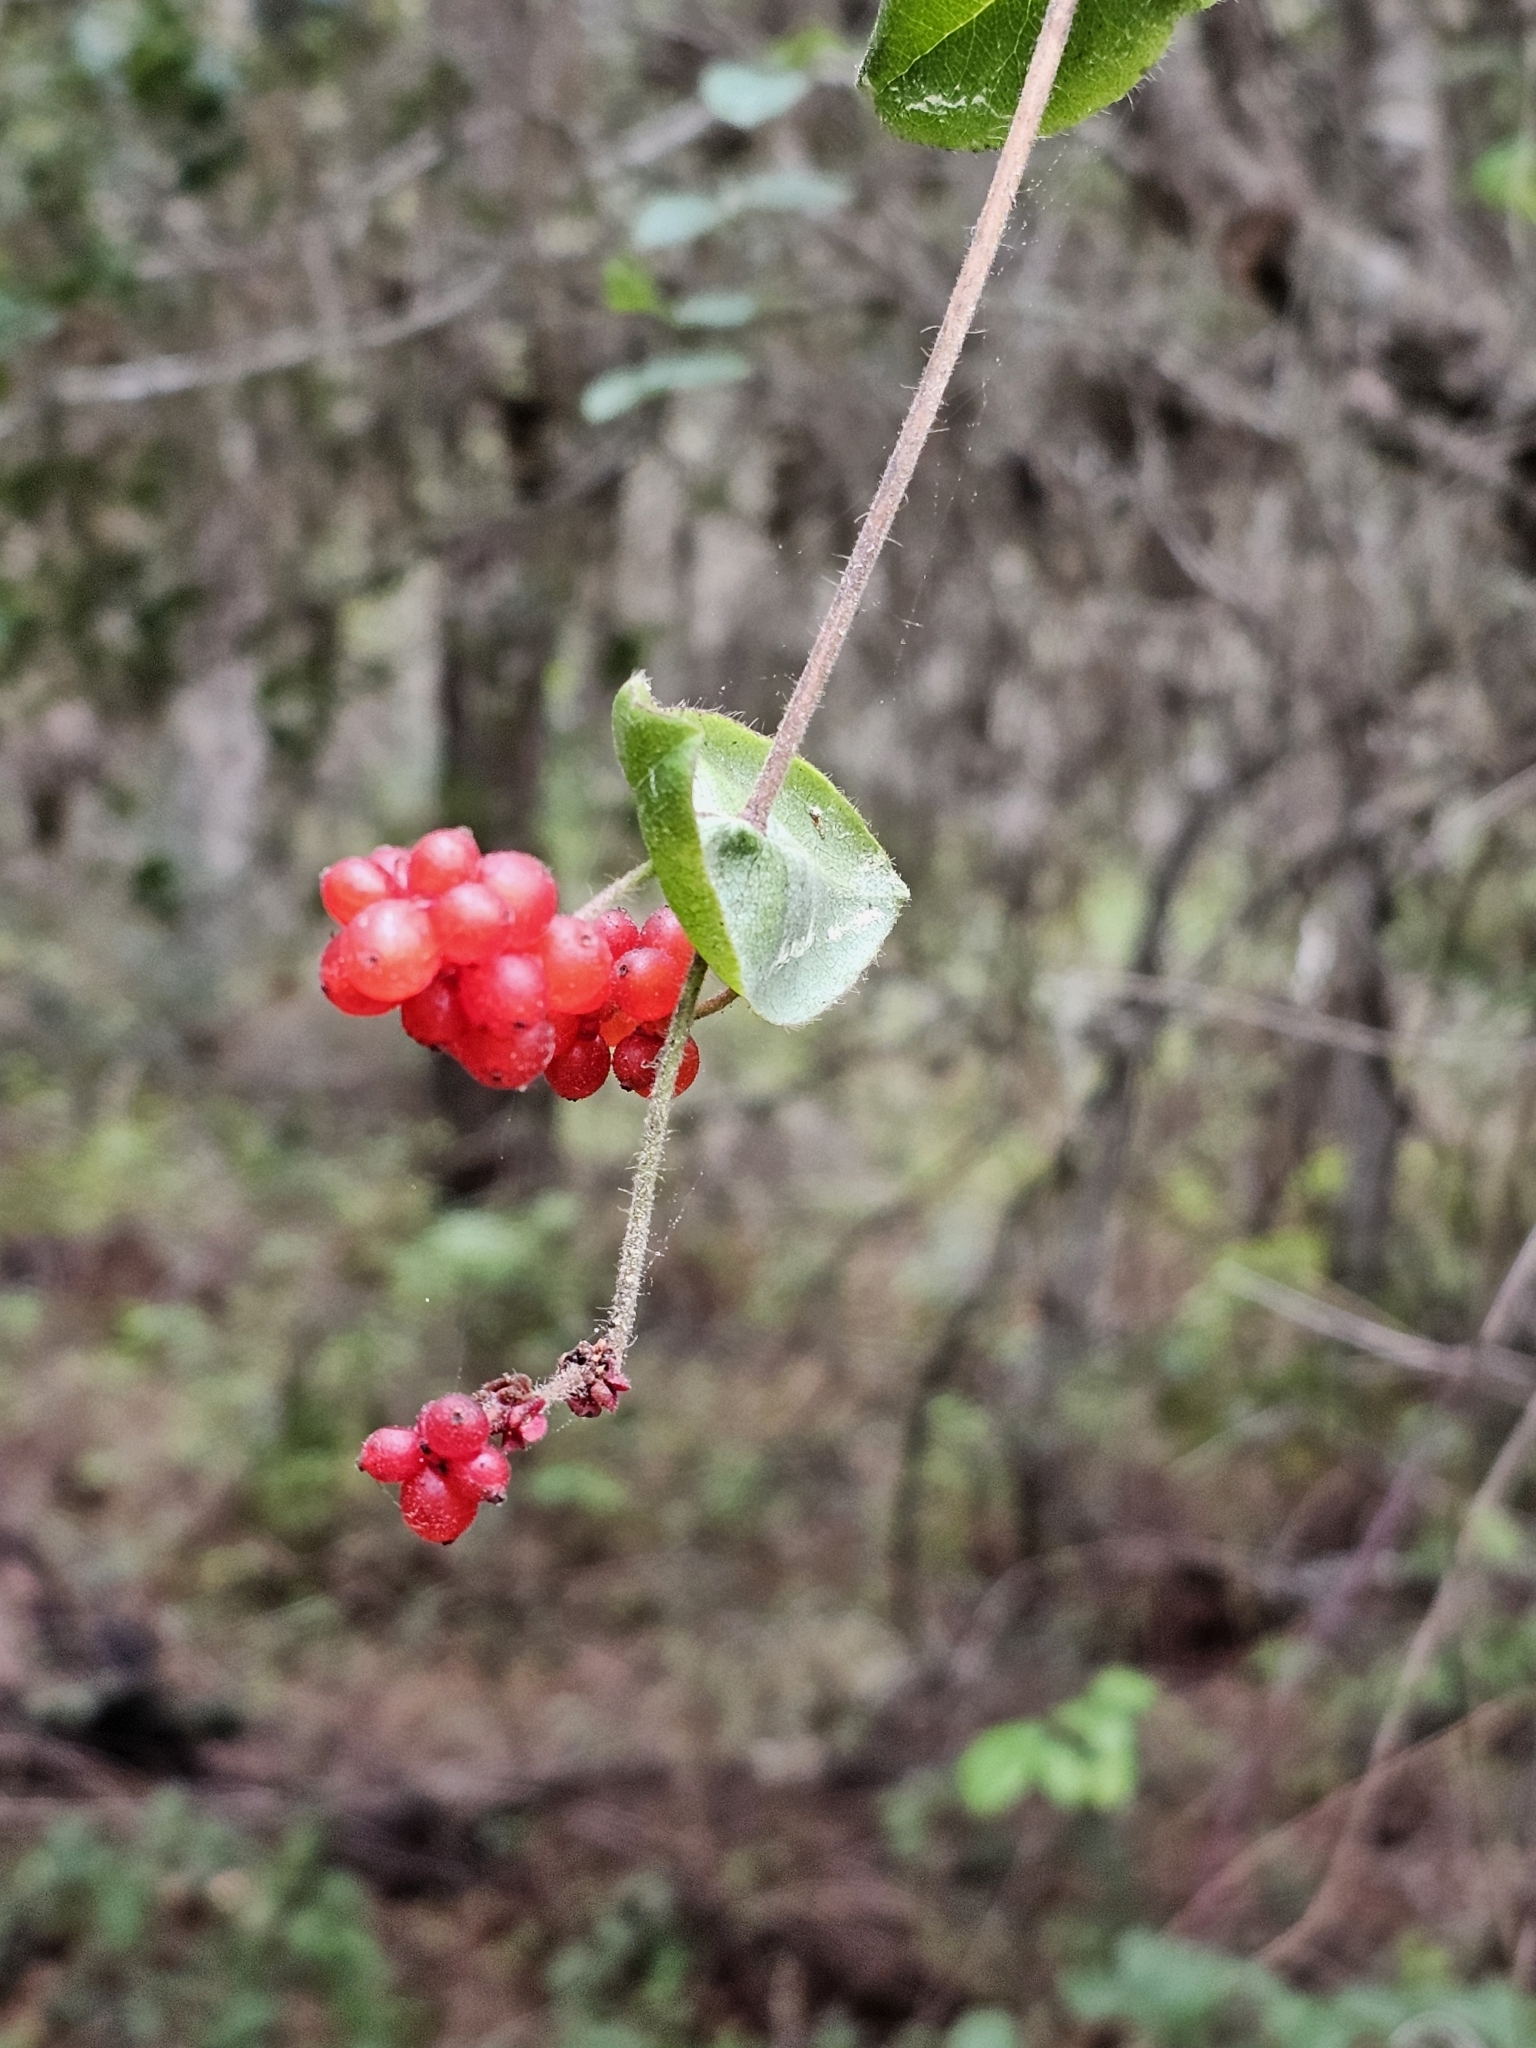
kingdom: Plantae
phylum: Tracheophyta
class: Magnoliopsida
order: Dipsacales
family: Caprifoliaceae
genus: Lonicera
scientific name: Lonicera hispidula
